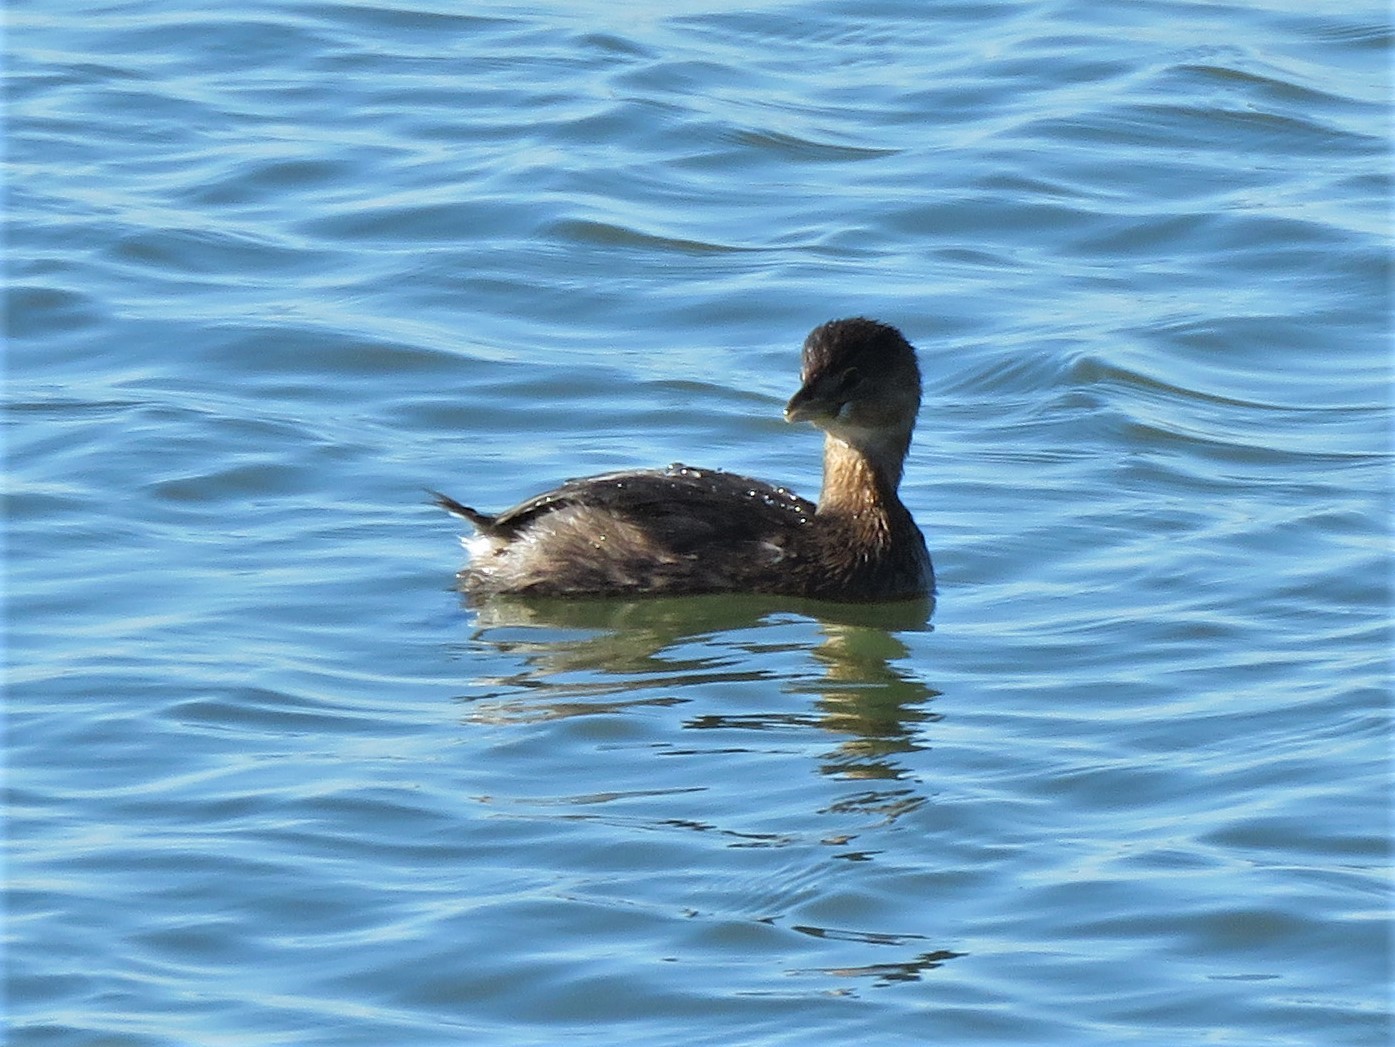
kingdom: Animalia
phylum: Chordata
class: Aves
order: Podicipediformes
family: Podicipedidae
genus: Podilymbus
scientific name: Podilymbus podiceps
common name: Pied-billed grebe
